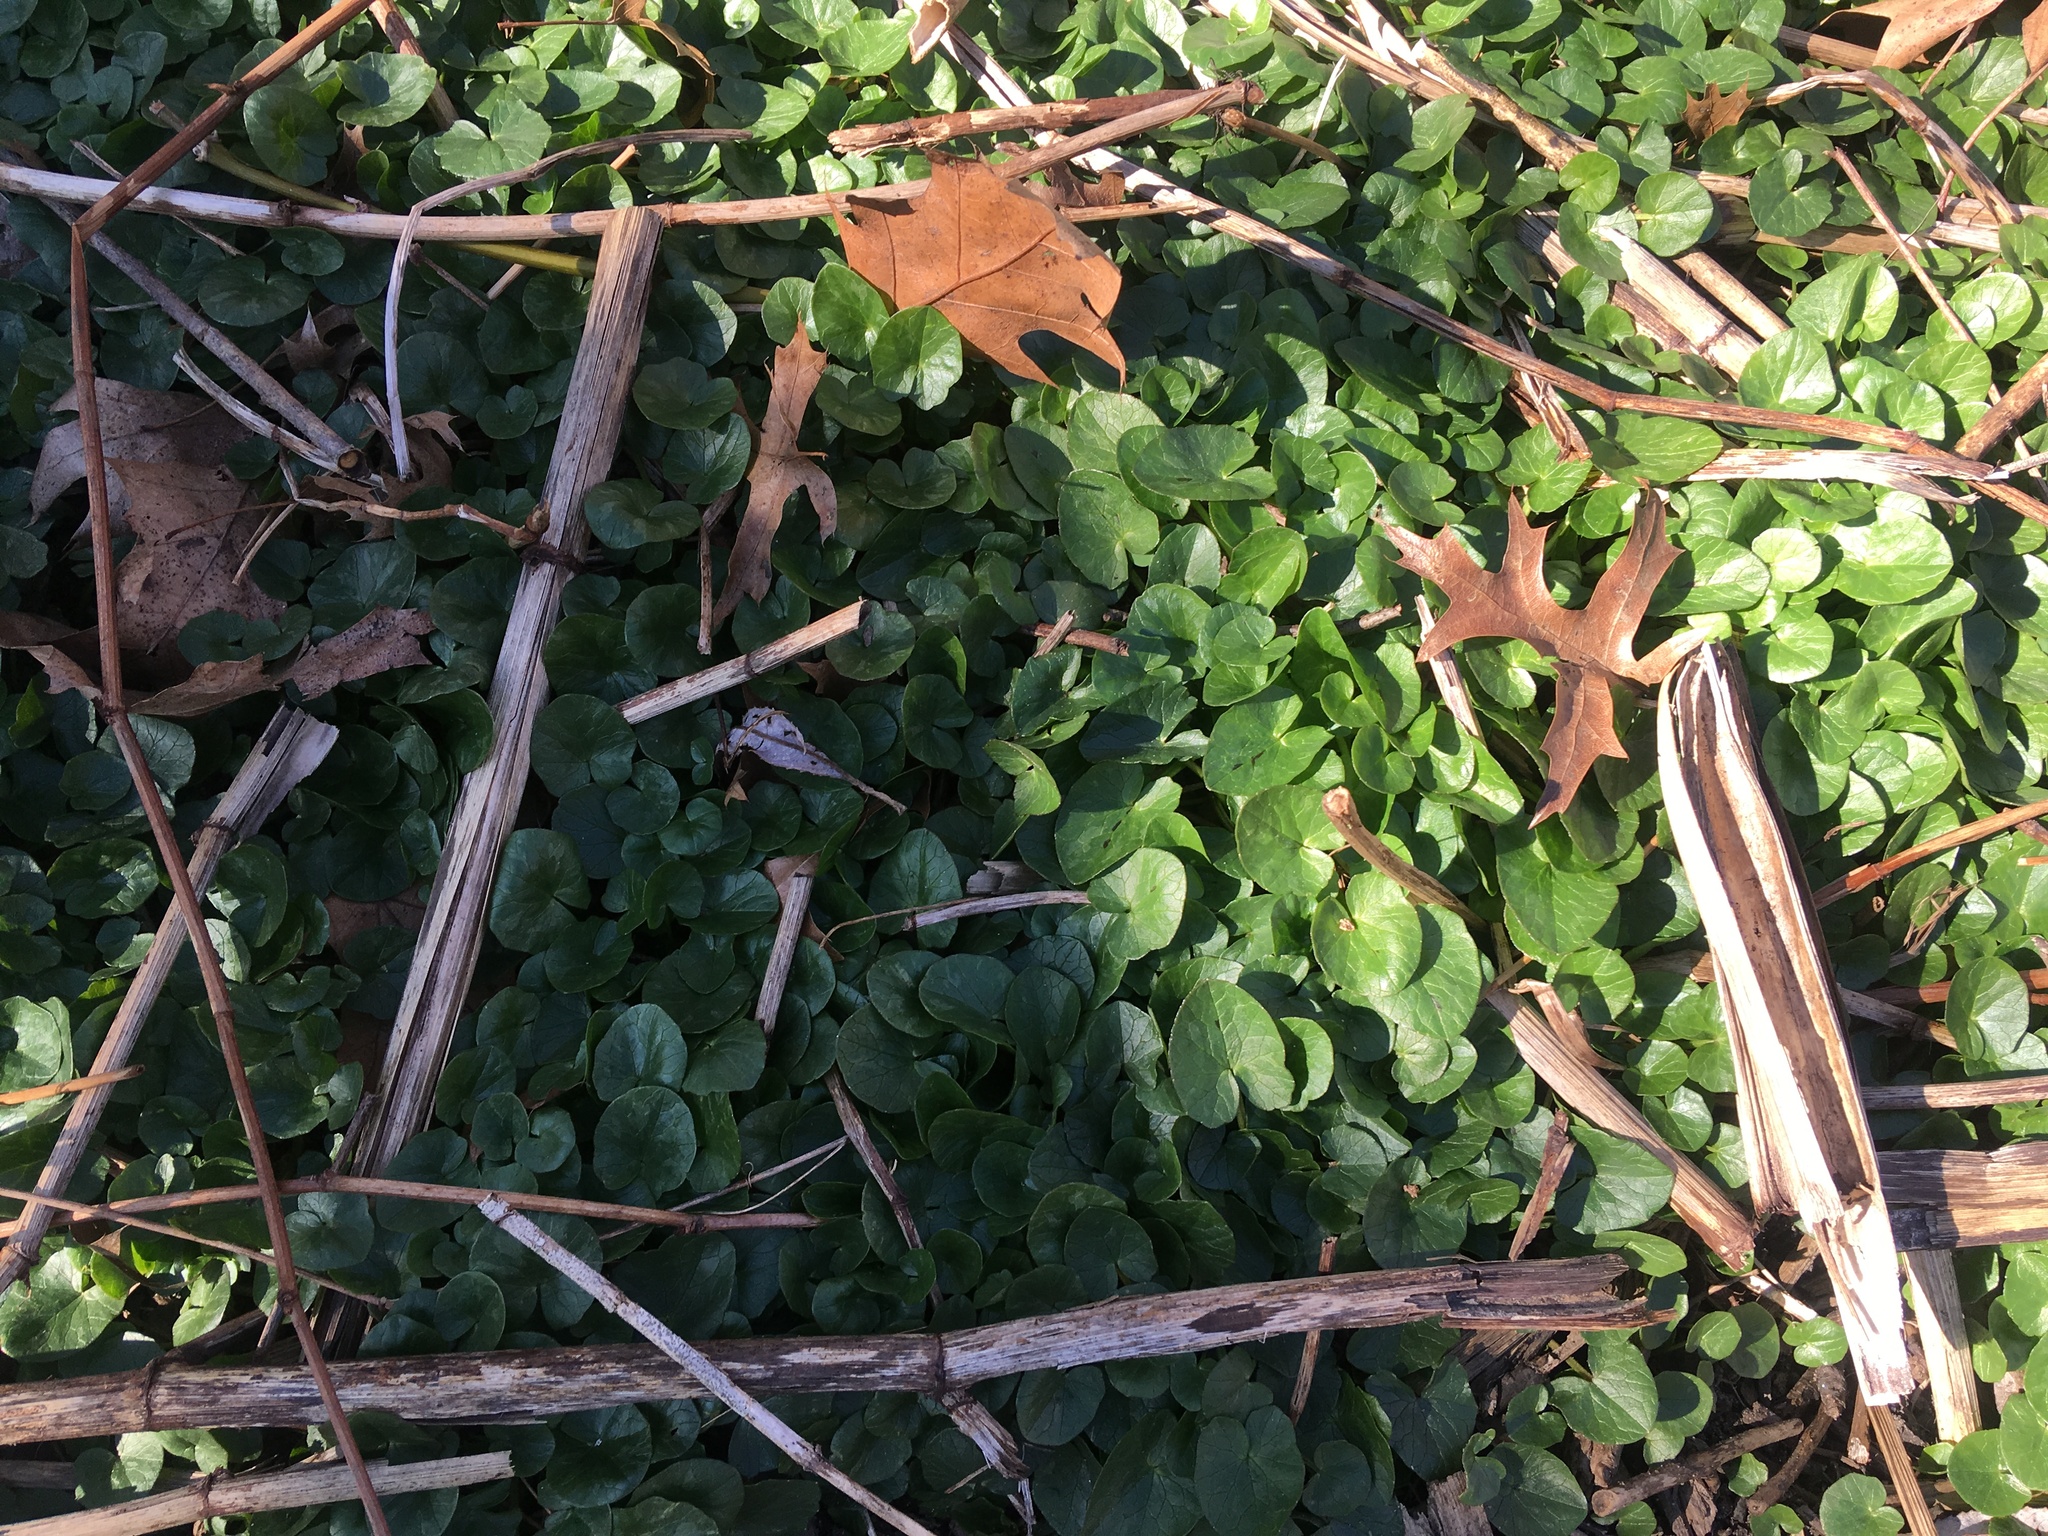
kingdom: Plantae
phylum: Tracheophyta
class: Magnoliopsida
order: Ranunculales
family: Ranunculaceae
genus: Ficaria
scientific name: Ficaria verna
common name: Lesser celandine
